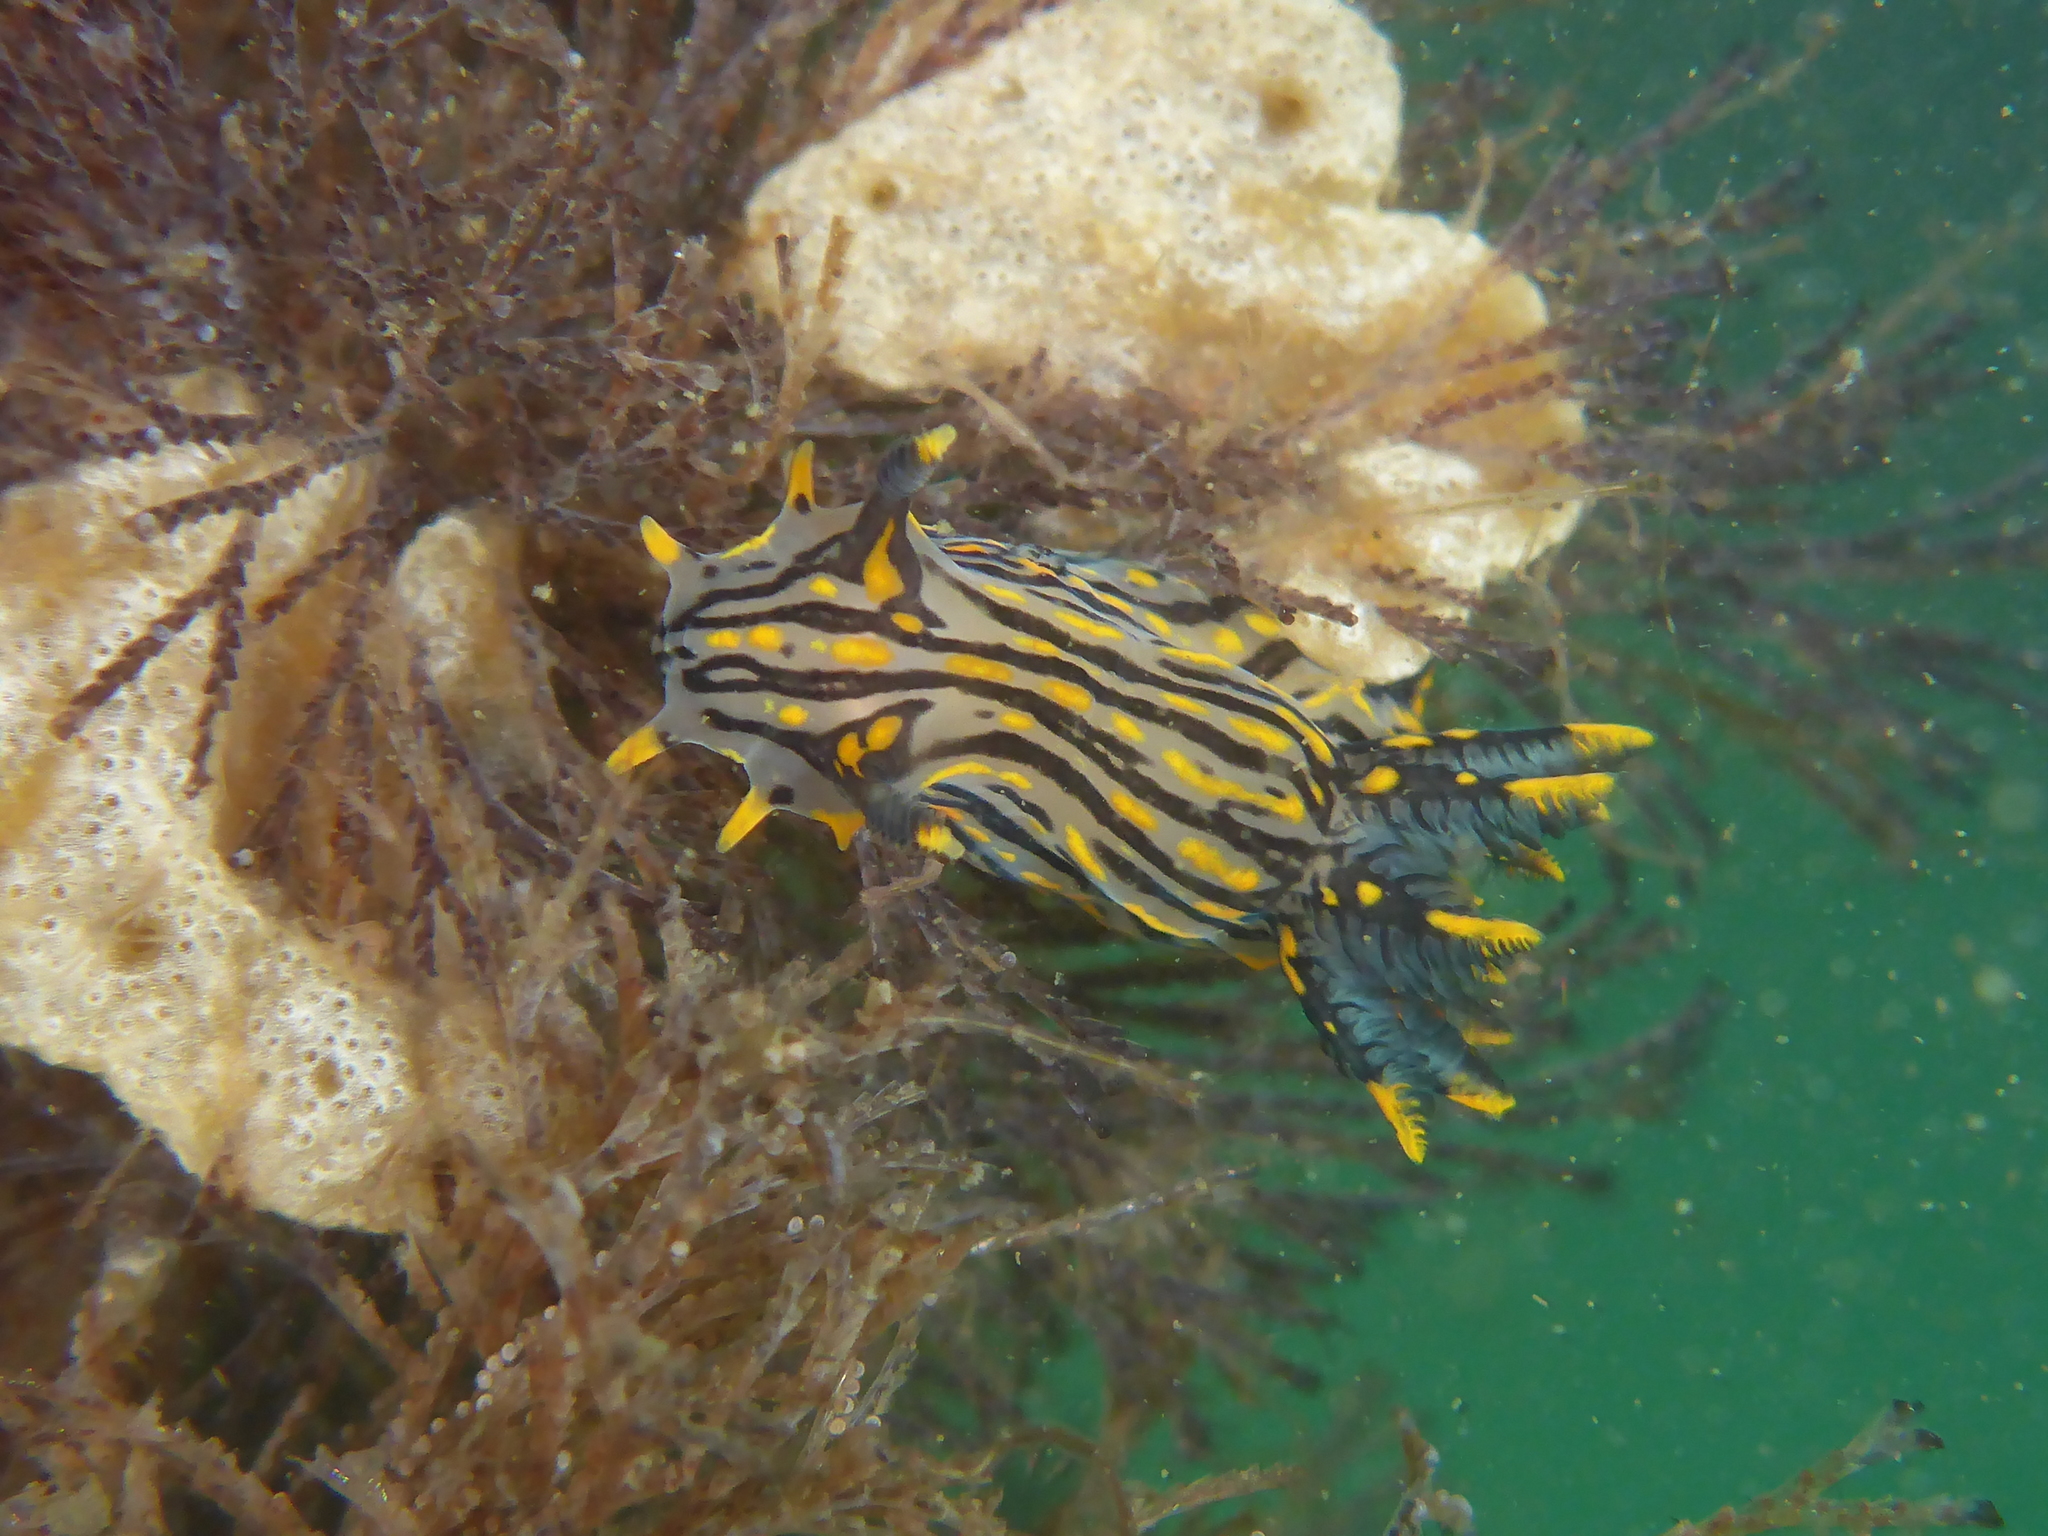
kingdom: Animalia
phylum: Mollusca
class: Gastropoda
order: Nudibranchia
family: Polyceridae
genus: Polycera
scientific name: Polycera atra
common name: Orange-spike polycera
